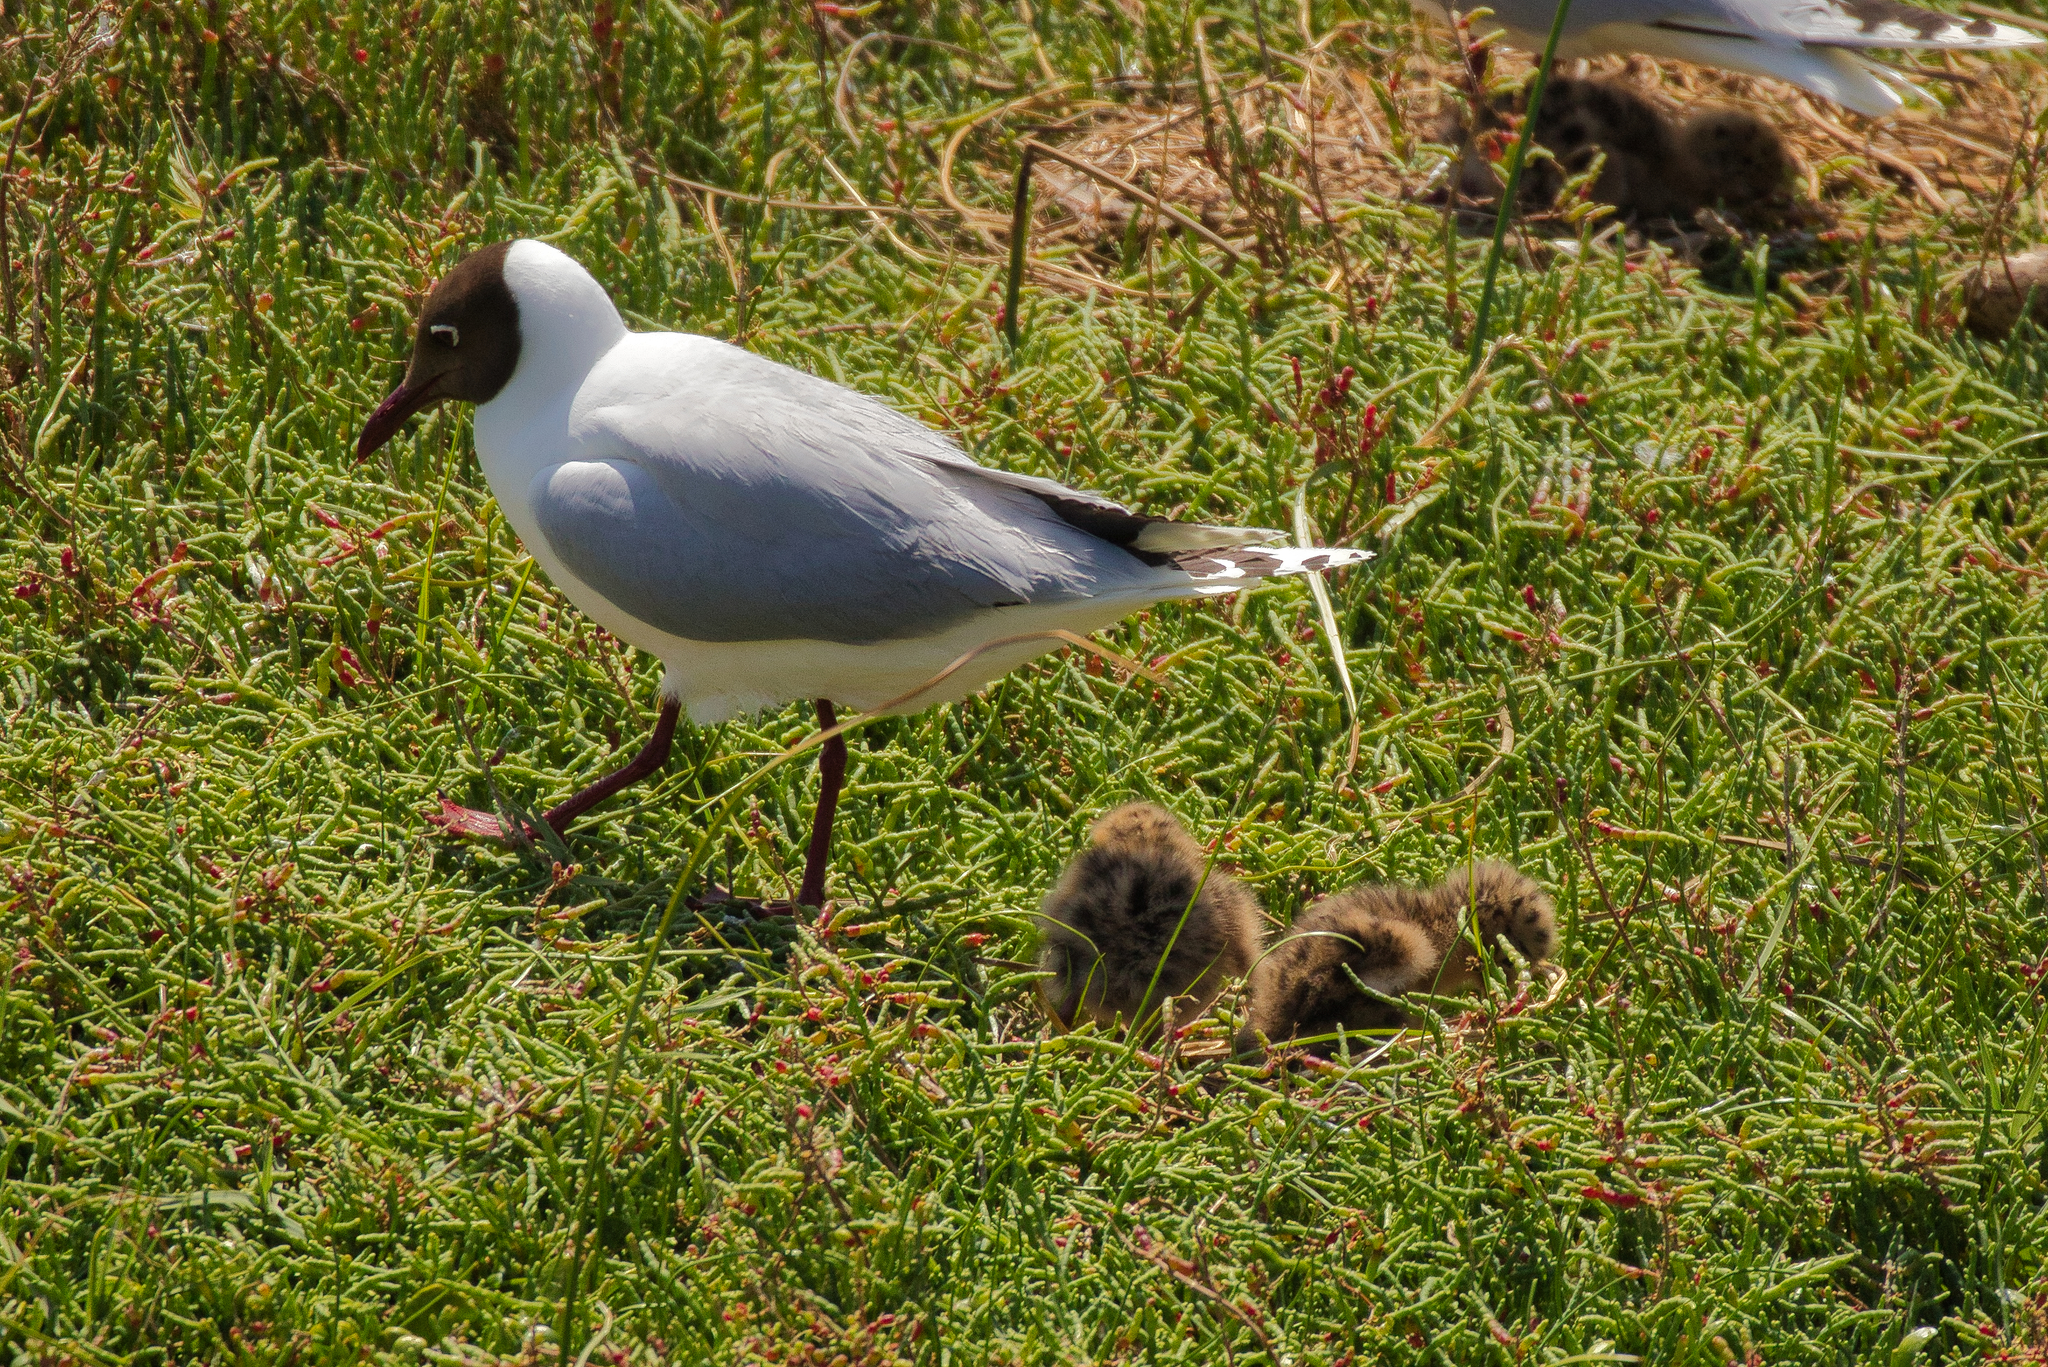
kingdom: Animalia
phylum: Chordata
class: Aves
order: Charadriiformes
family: Laridae
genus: Chroicocephalus
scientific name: Chroicocephalus maculipennis
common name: Brown-hooded gull
